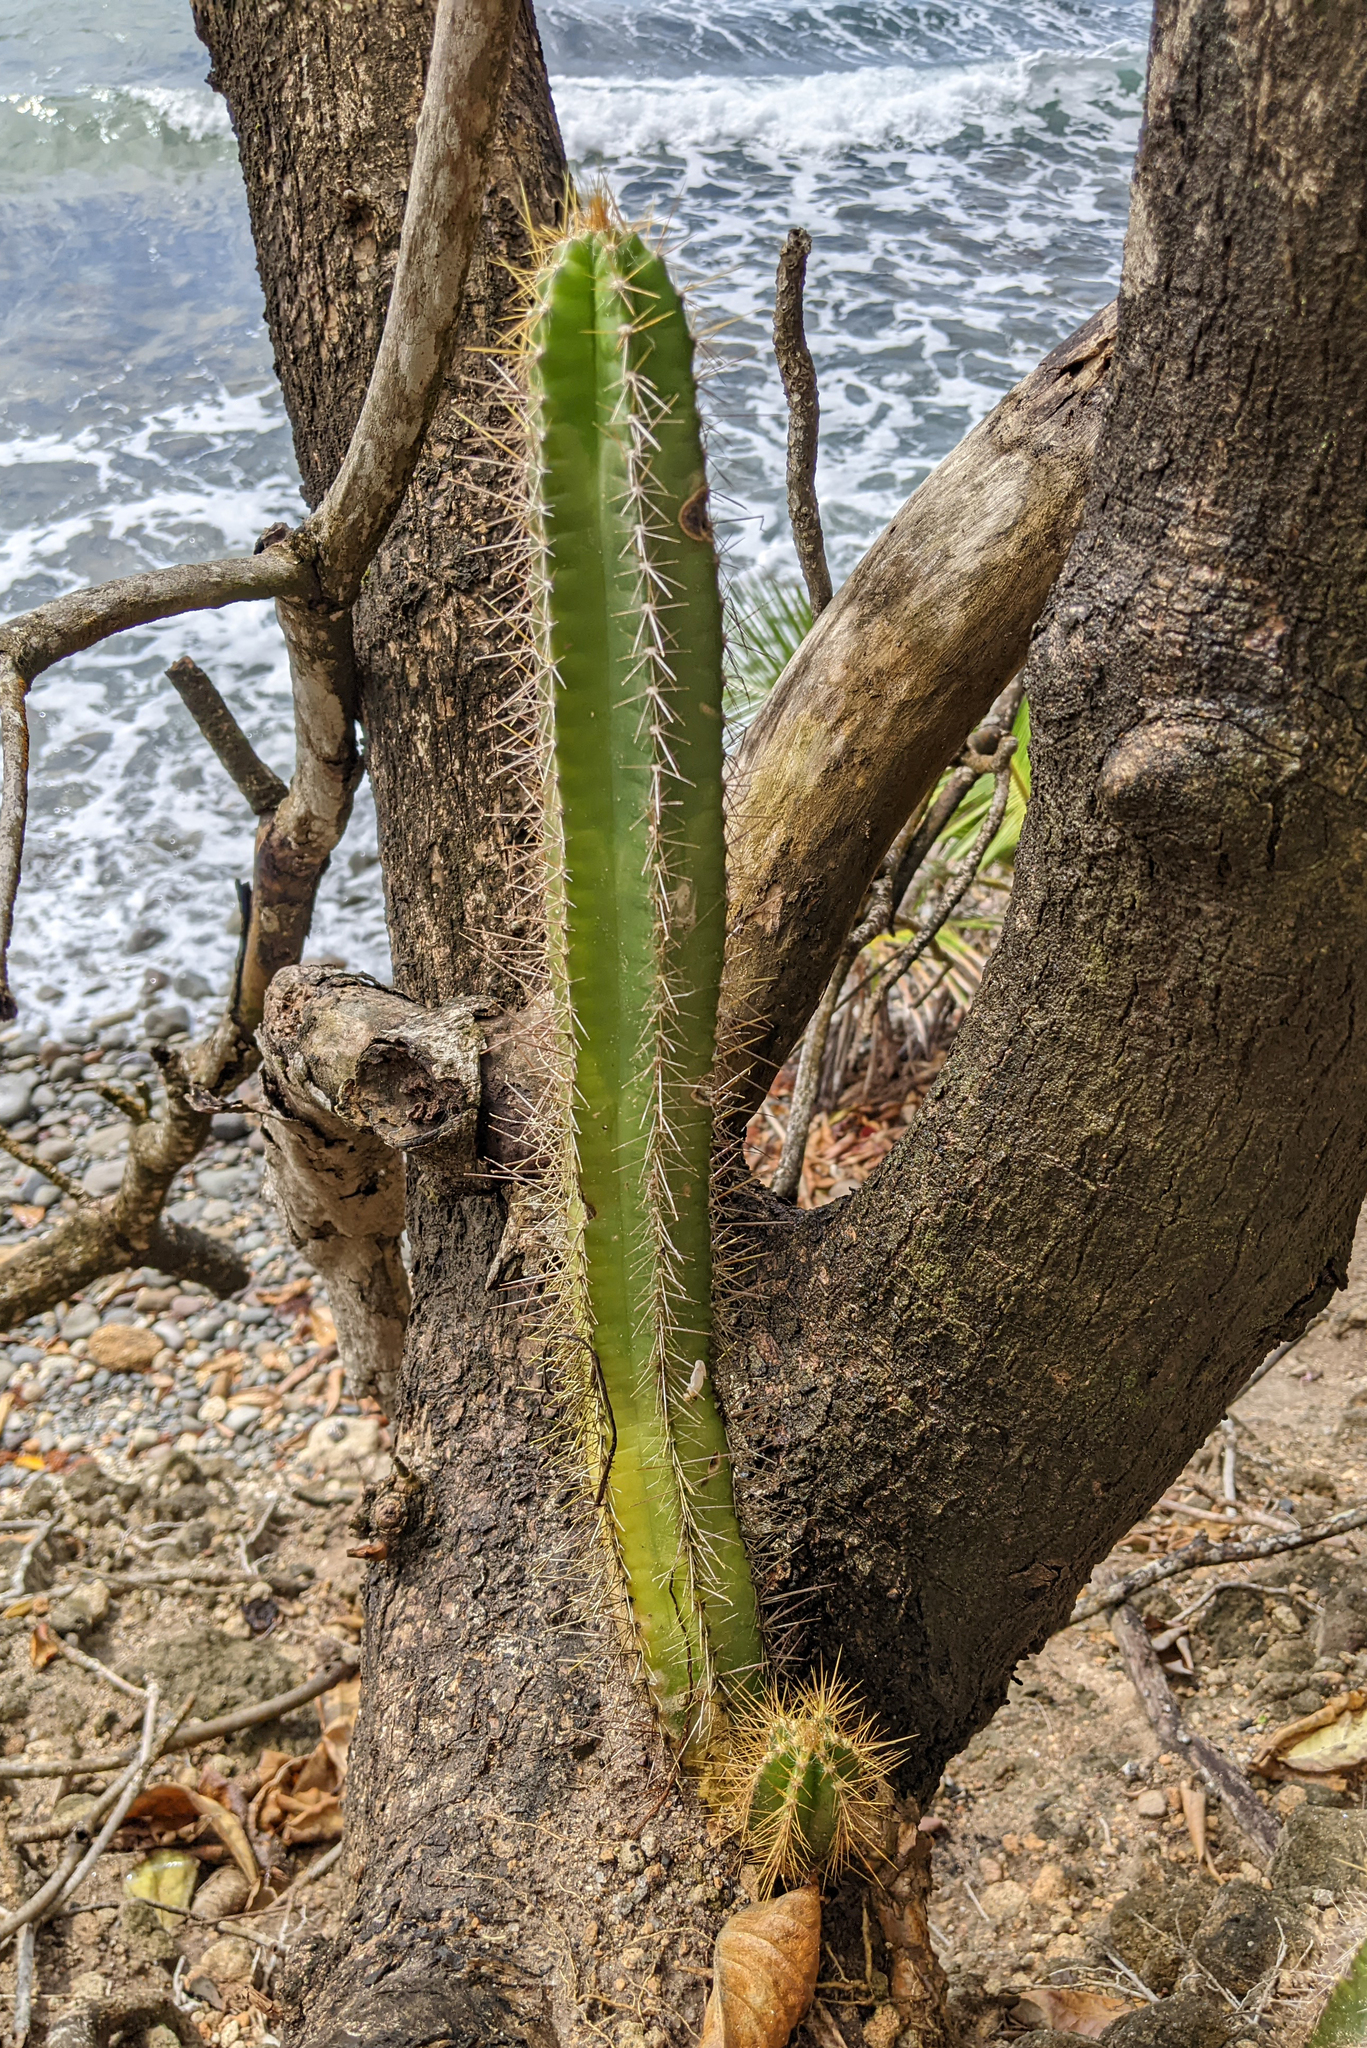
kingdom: Plantae
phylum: Tracheophyta
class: Magnoliopsida
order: Caryophyllales
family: Cactaceae
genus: Pilosocereus
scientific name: Pilosocereus curtisii
